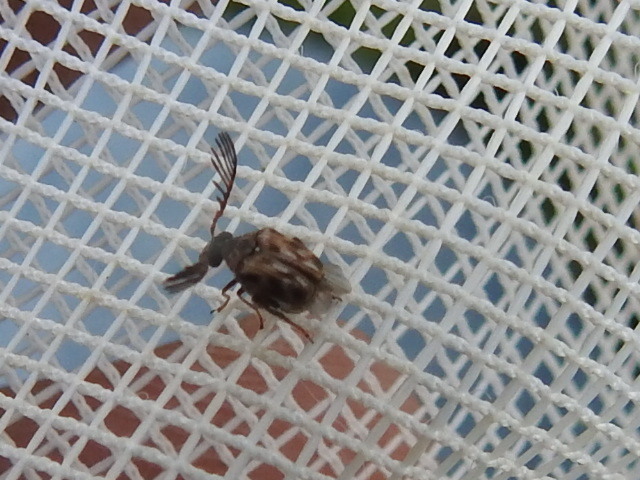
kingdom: Animalia
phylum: Arthropoda
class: Insecta
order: Coleoptera
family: Chrysomelidae
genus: Megacerus
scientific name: Megacerus cubiculus
